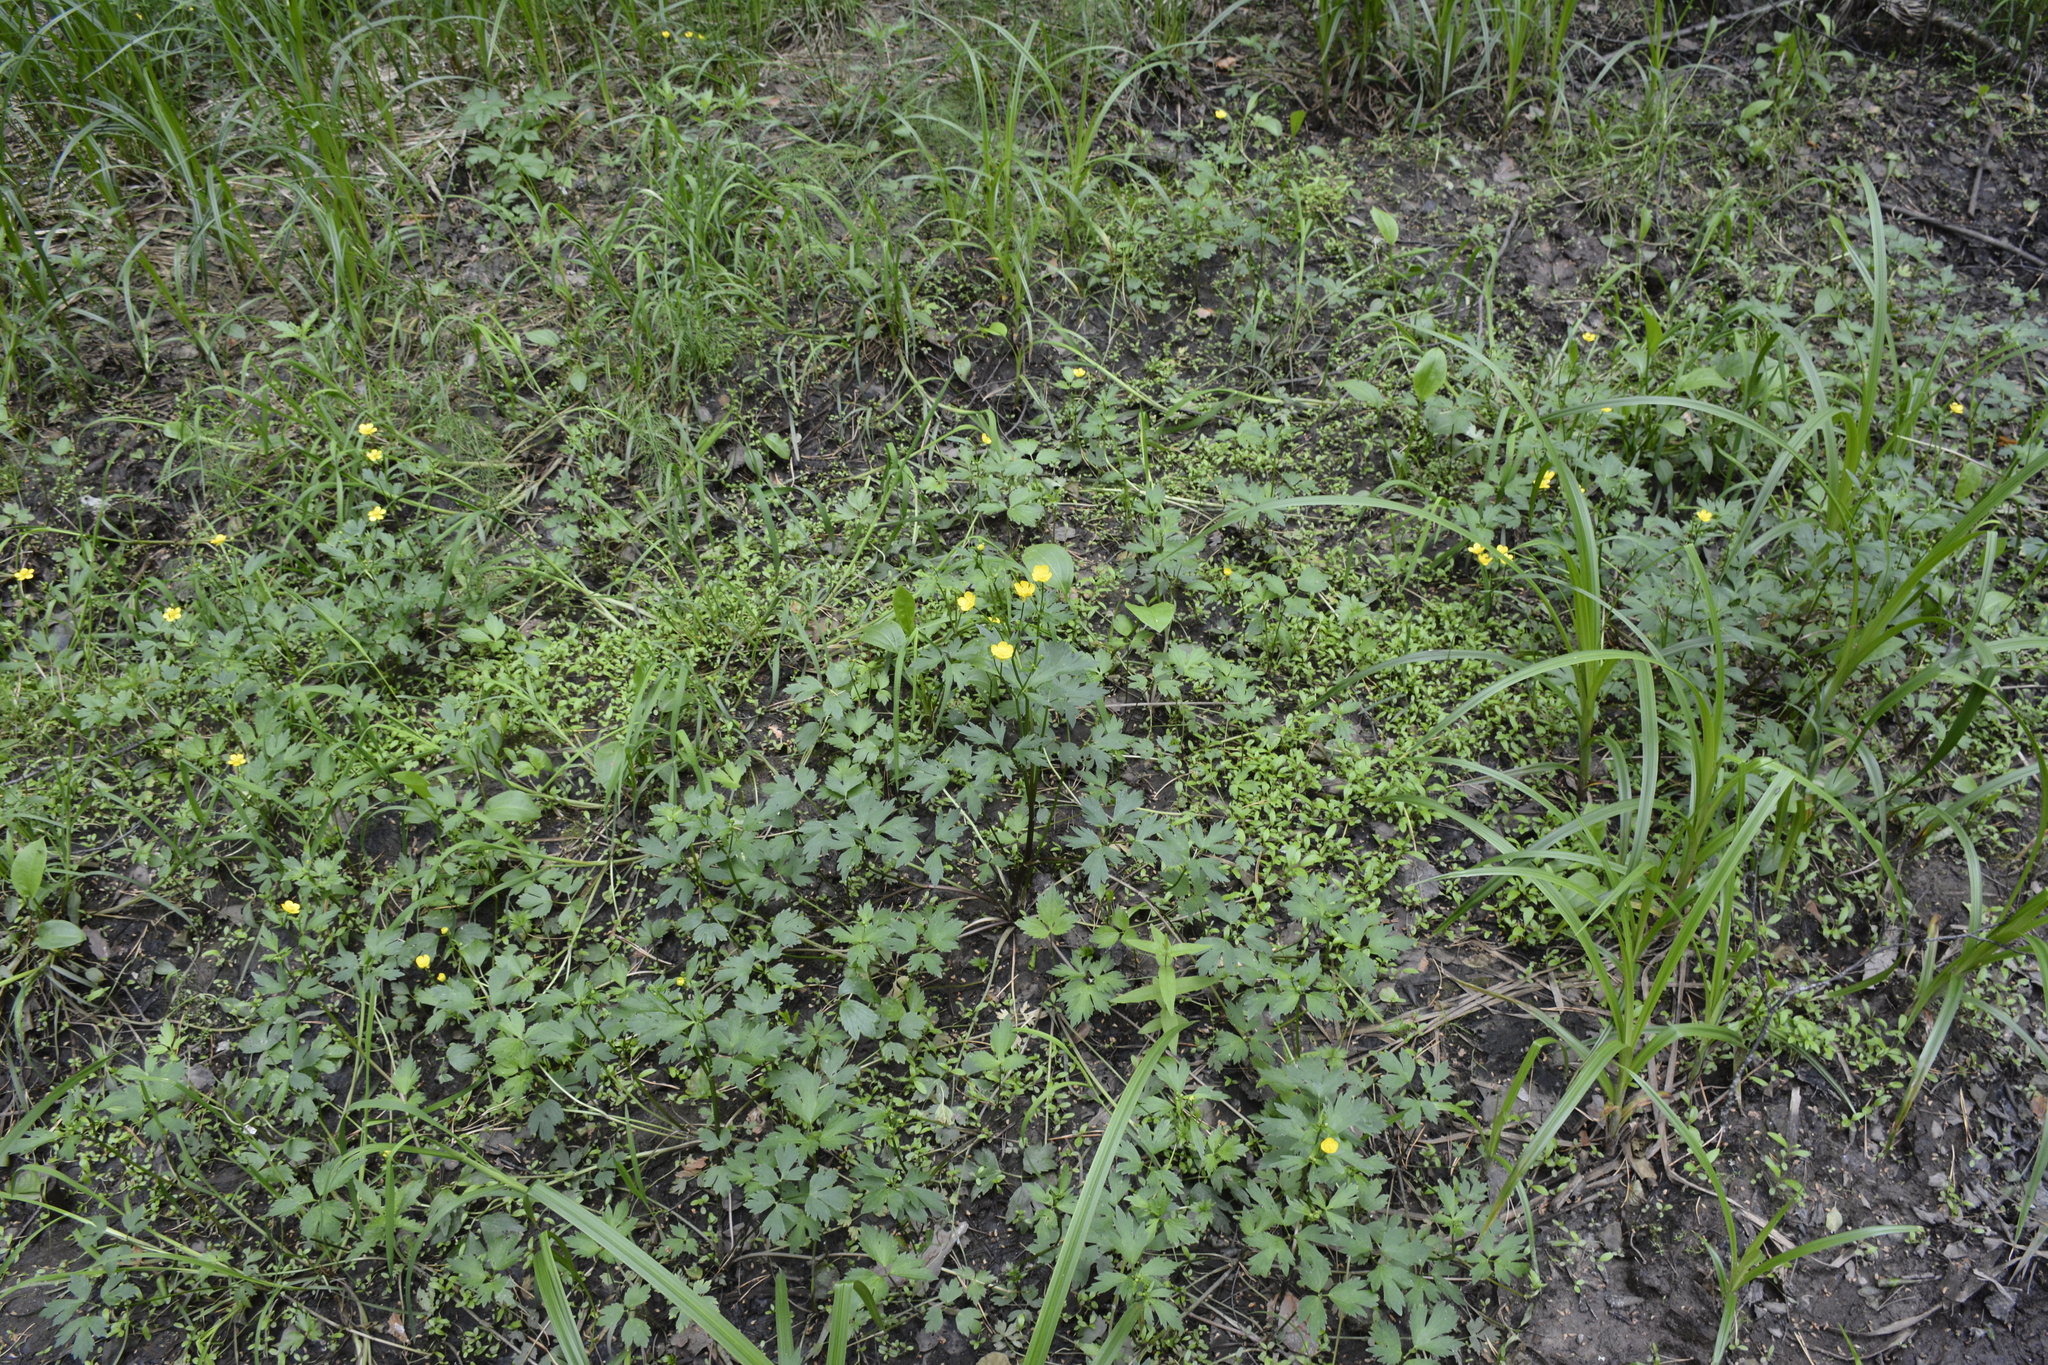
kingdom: Plantae
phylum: Tracheophyta
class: Magnoliopsida
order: Ranunculales
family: Ranunculaceae
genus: Ranunculus
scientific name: Ranunculus repens
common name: Creeping buttercup
